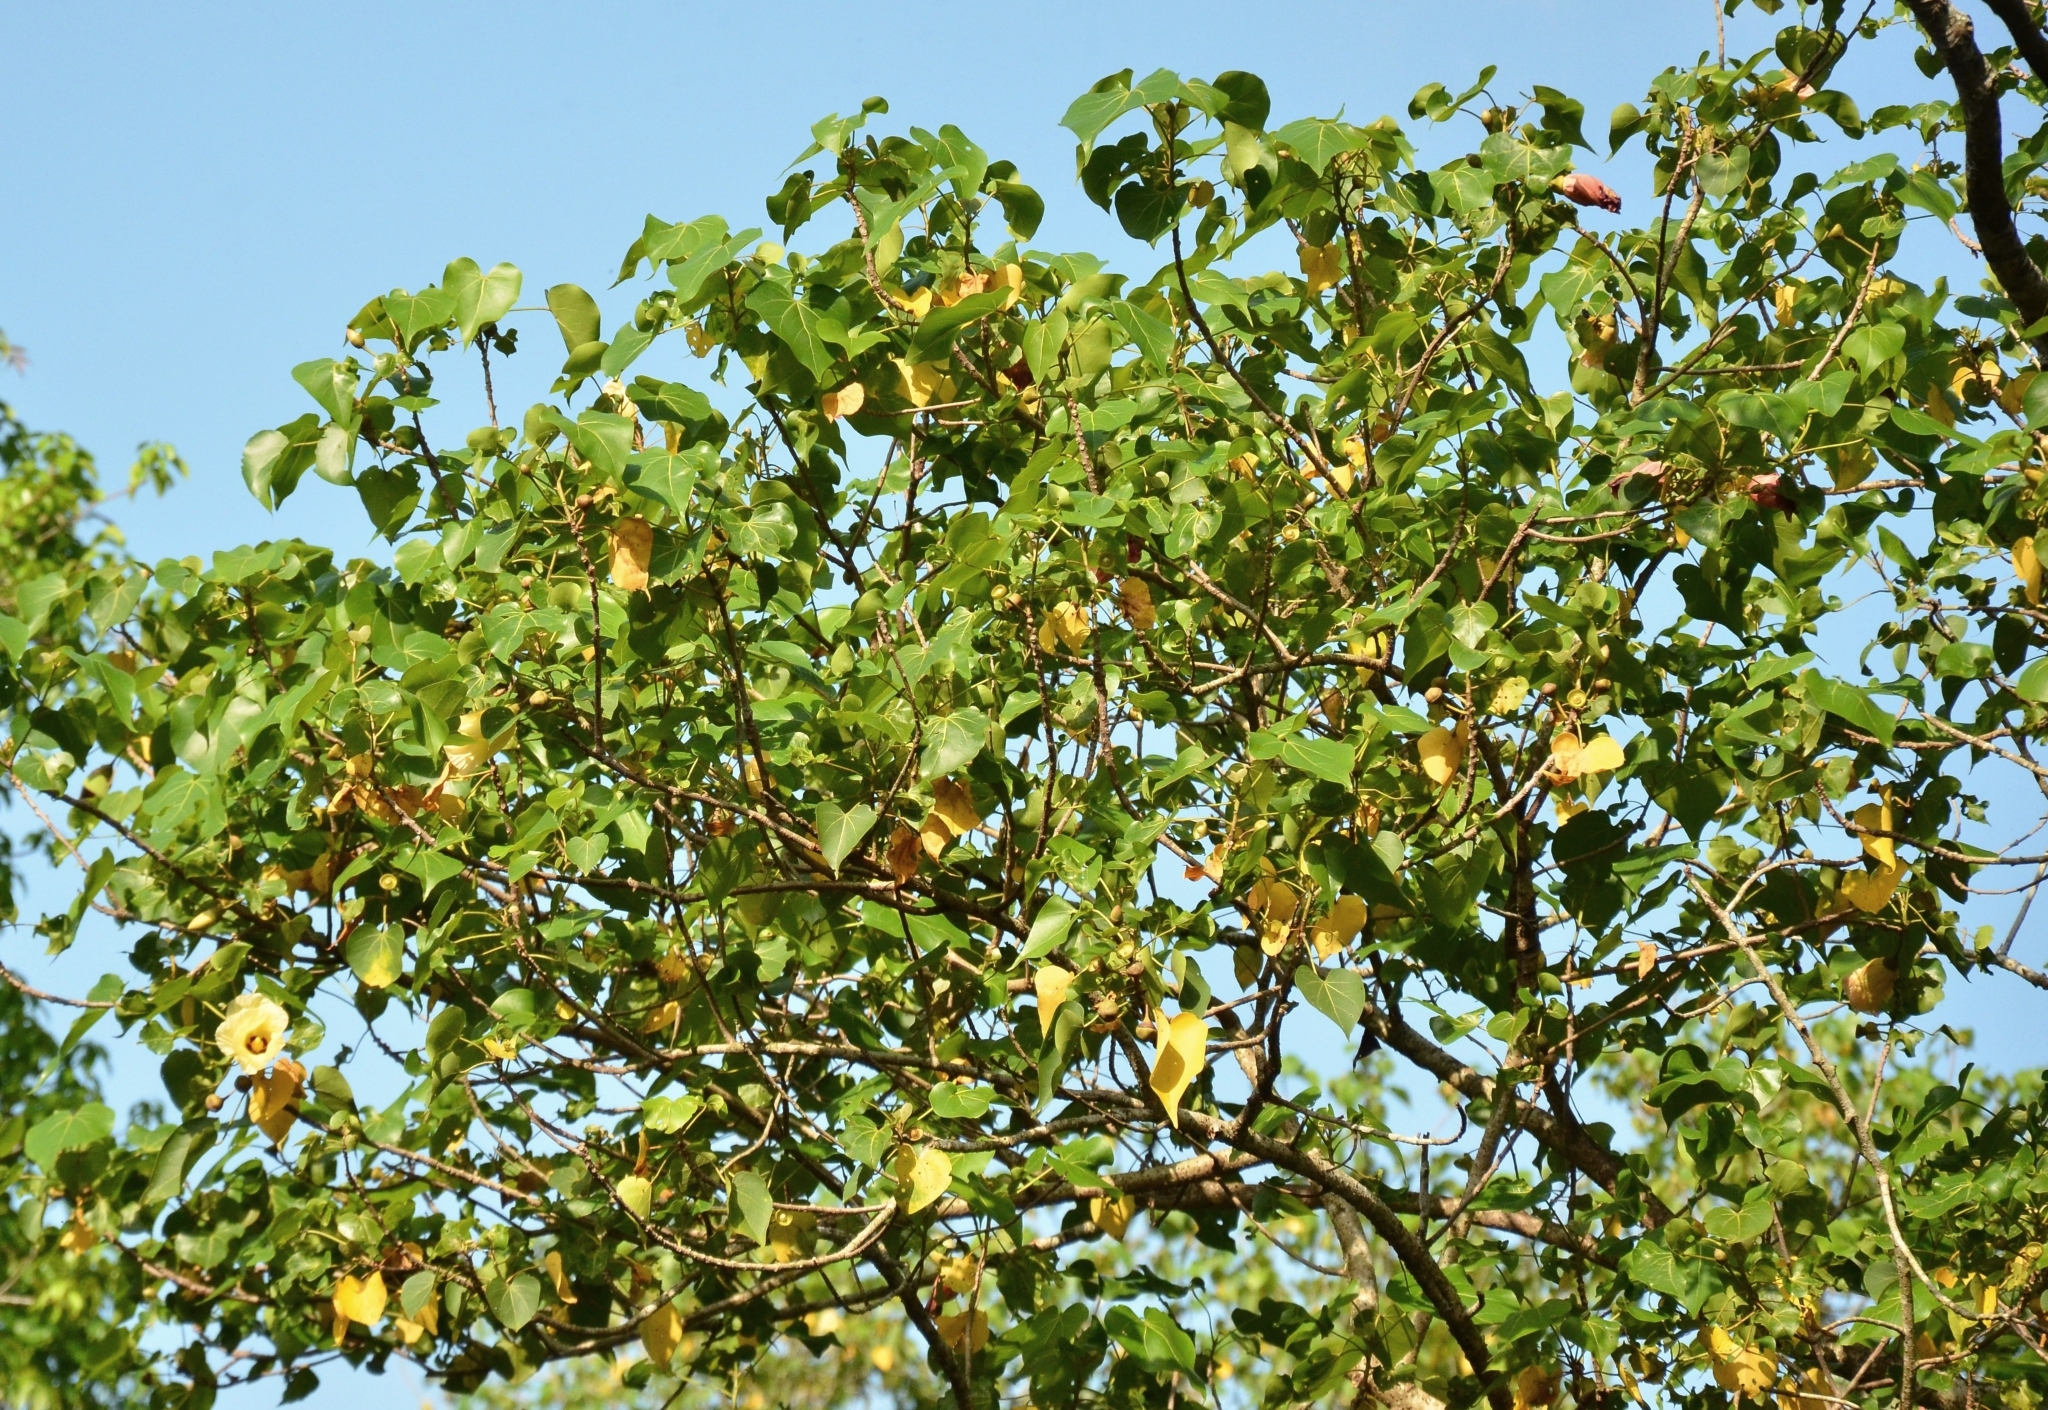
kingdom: Plantae
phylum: Tracheophyta
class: Magnoliopsida
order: Malvales
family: Malvaceae
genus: Thespesia
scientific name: Thespesia populnea
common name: Seaside mahoe
